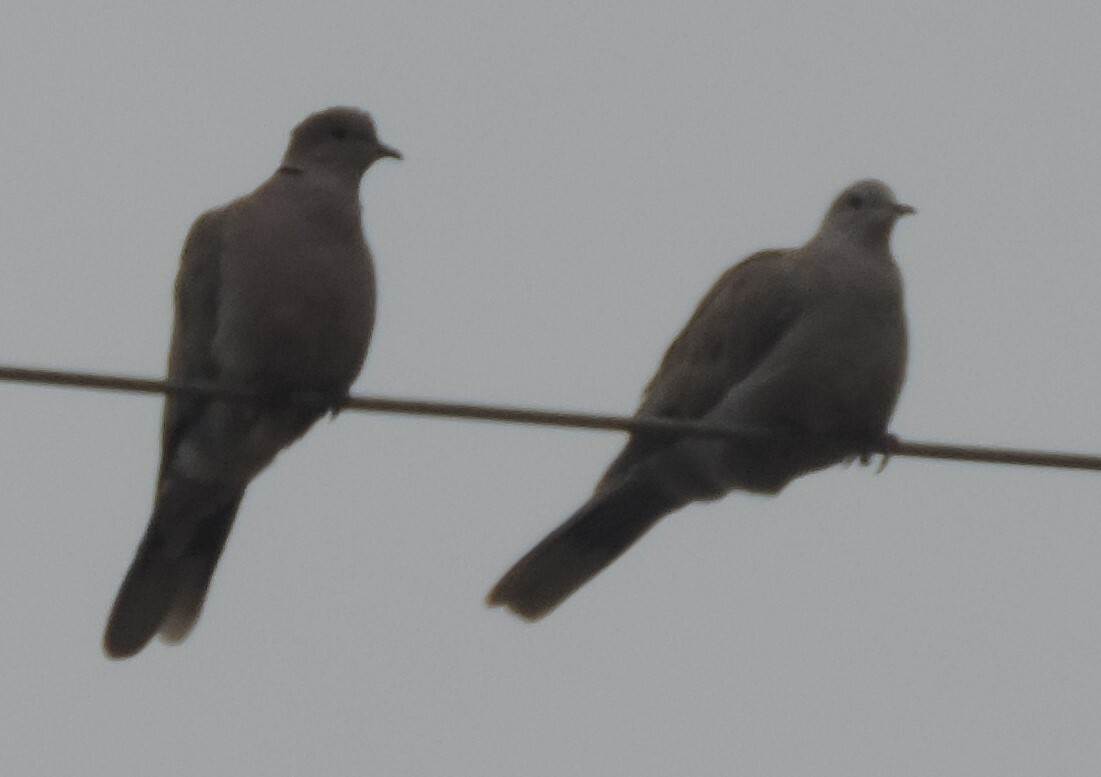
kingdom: Animalia
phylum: Chordata
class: Aves
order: Columbiformes
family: Columbidae
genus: Streptopelia
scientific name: Streptopelia decaocto
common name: Eurasian collared dove
